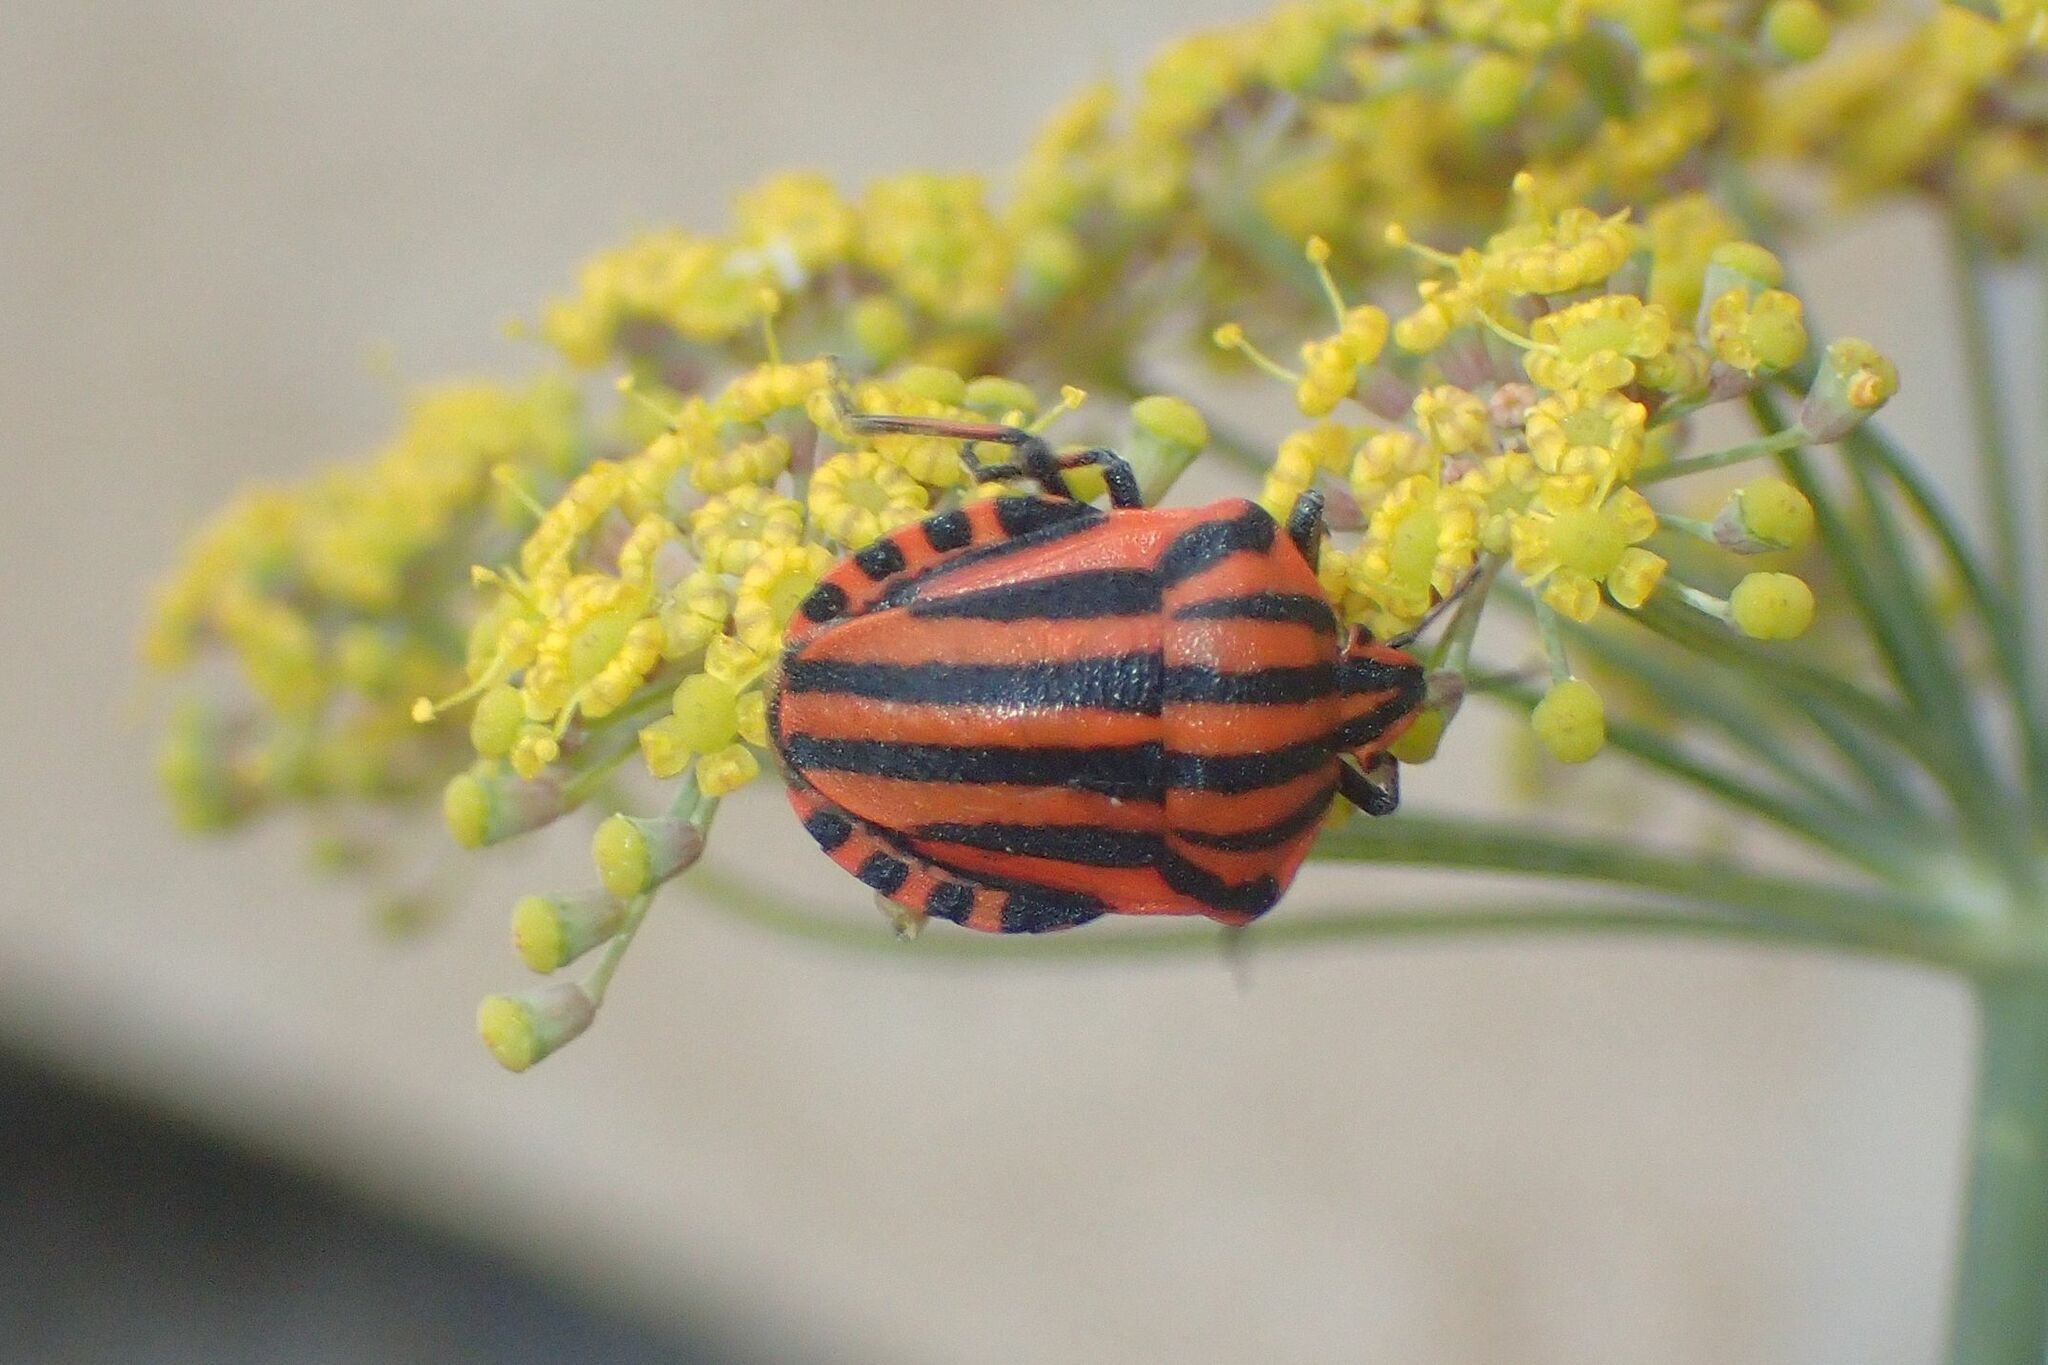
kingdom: Animalia
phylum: Arthropoda
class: Insecta
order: Hemiptera
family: Pentatomidae
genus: Graphosoma
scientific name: Graphosoma italicum
